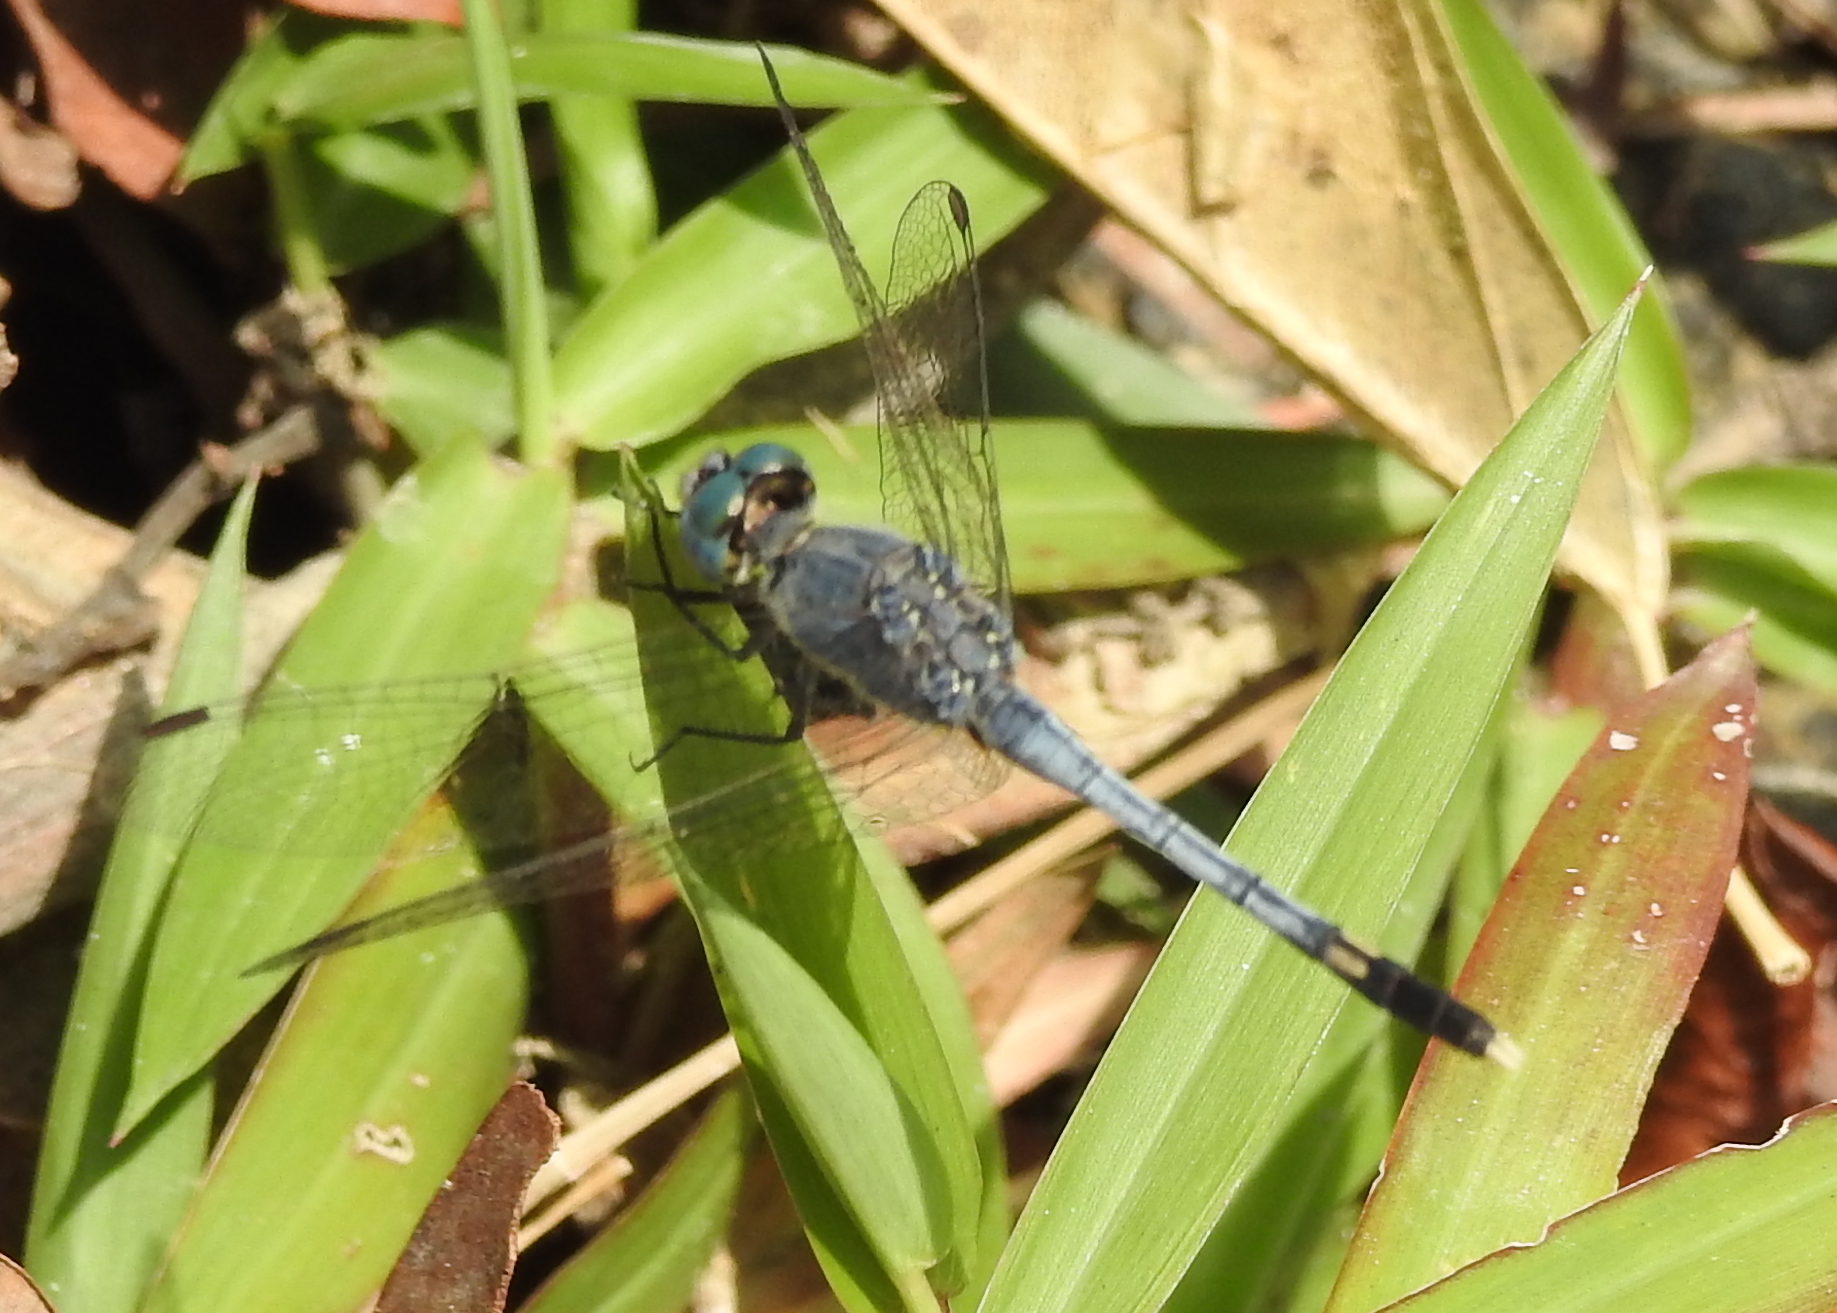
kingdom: Animalia
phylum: Arthropoda
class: Insecta
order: Odonata
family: Libellulidae
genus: Diplacodes
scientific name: Diplacodes trivialis
